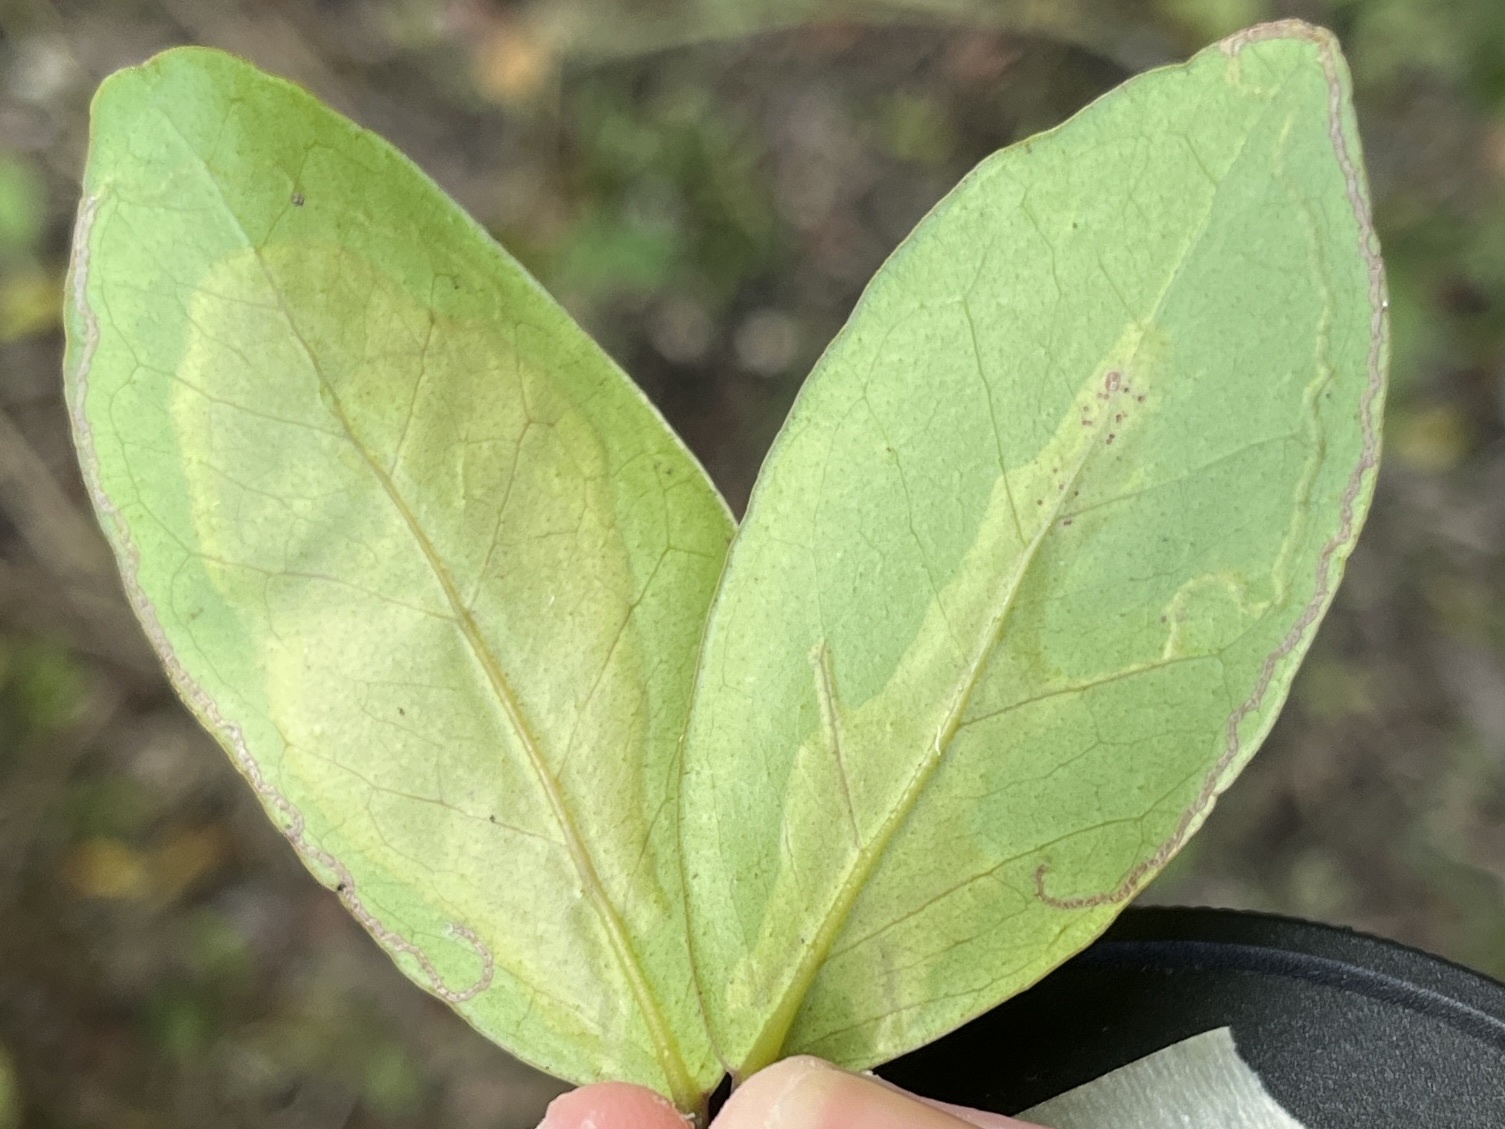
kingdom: Animalia
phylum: Arthropoda
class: Insecta
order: Lepidoptera
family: Gracillariidae
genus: Chilocampyla
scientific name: Chilocampyla dyariella
